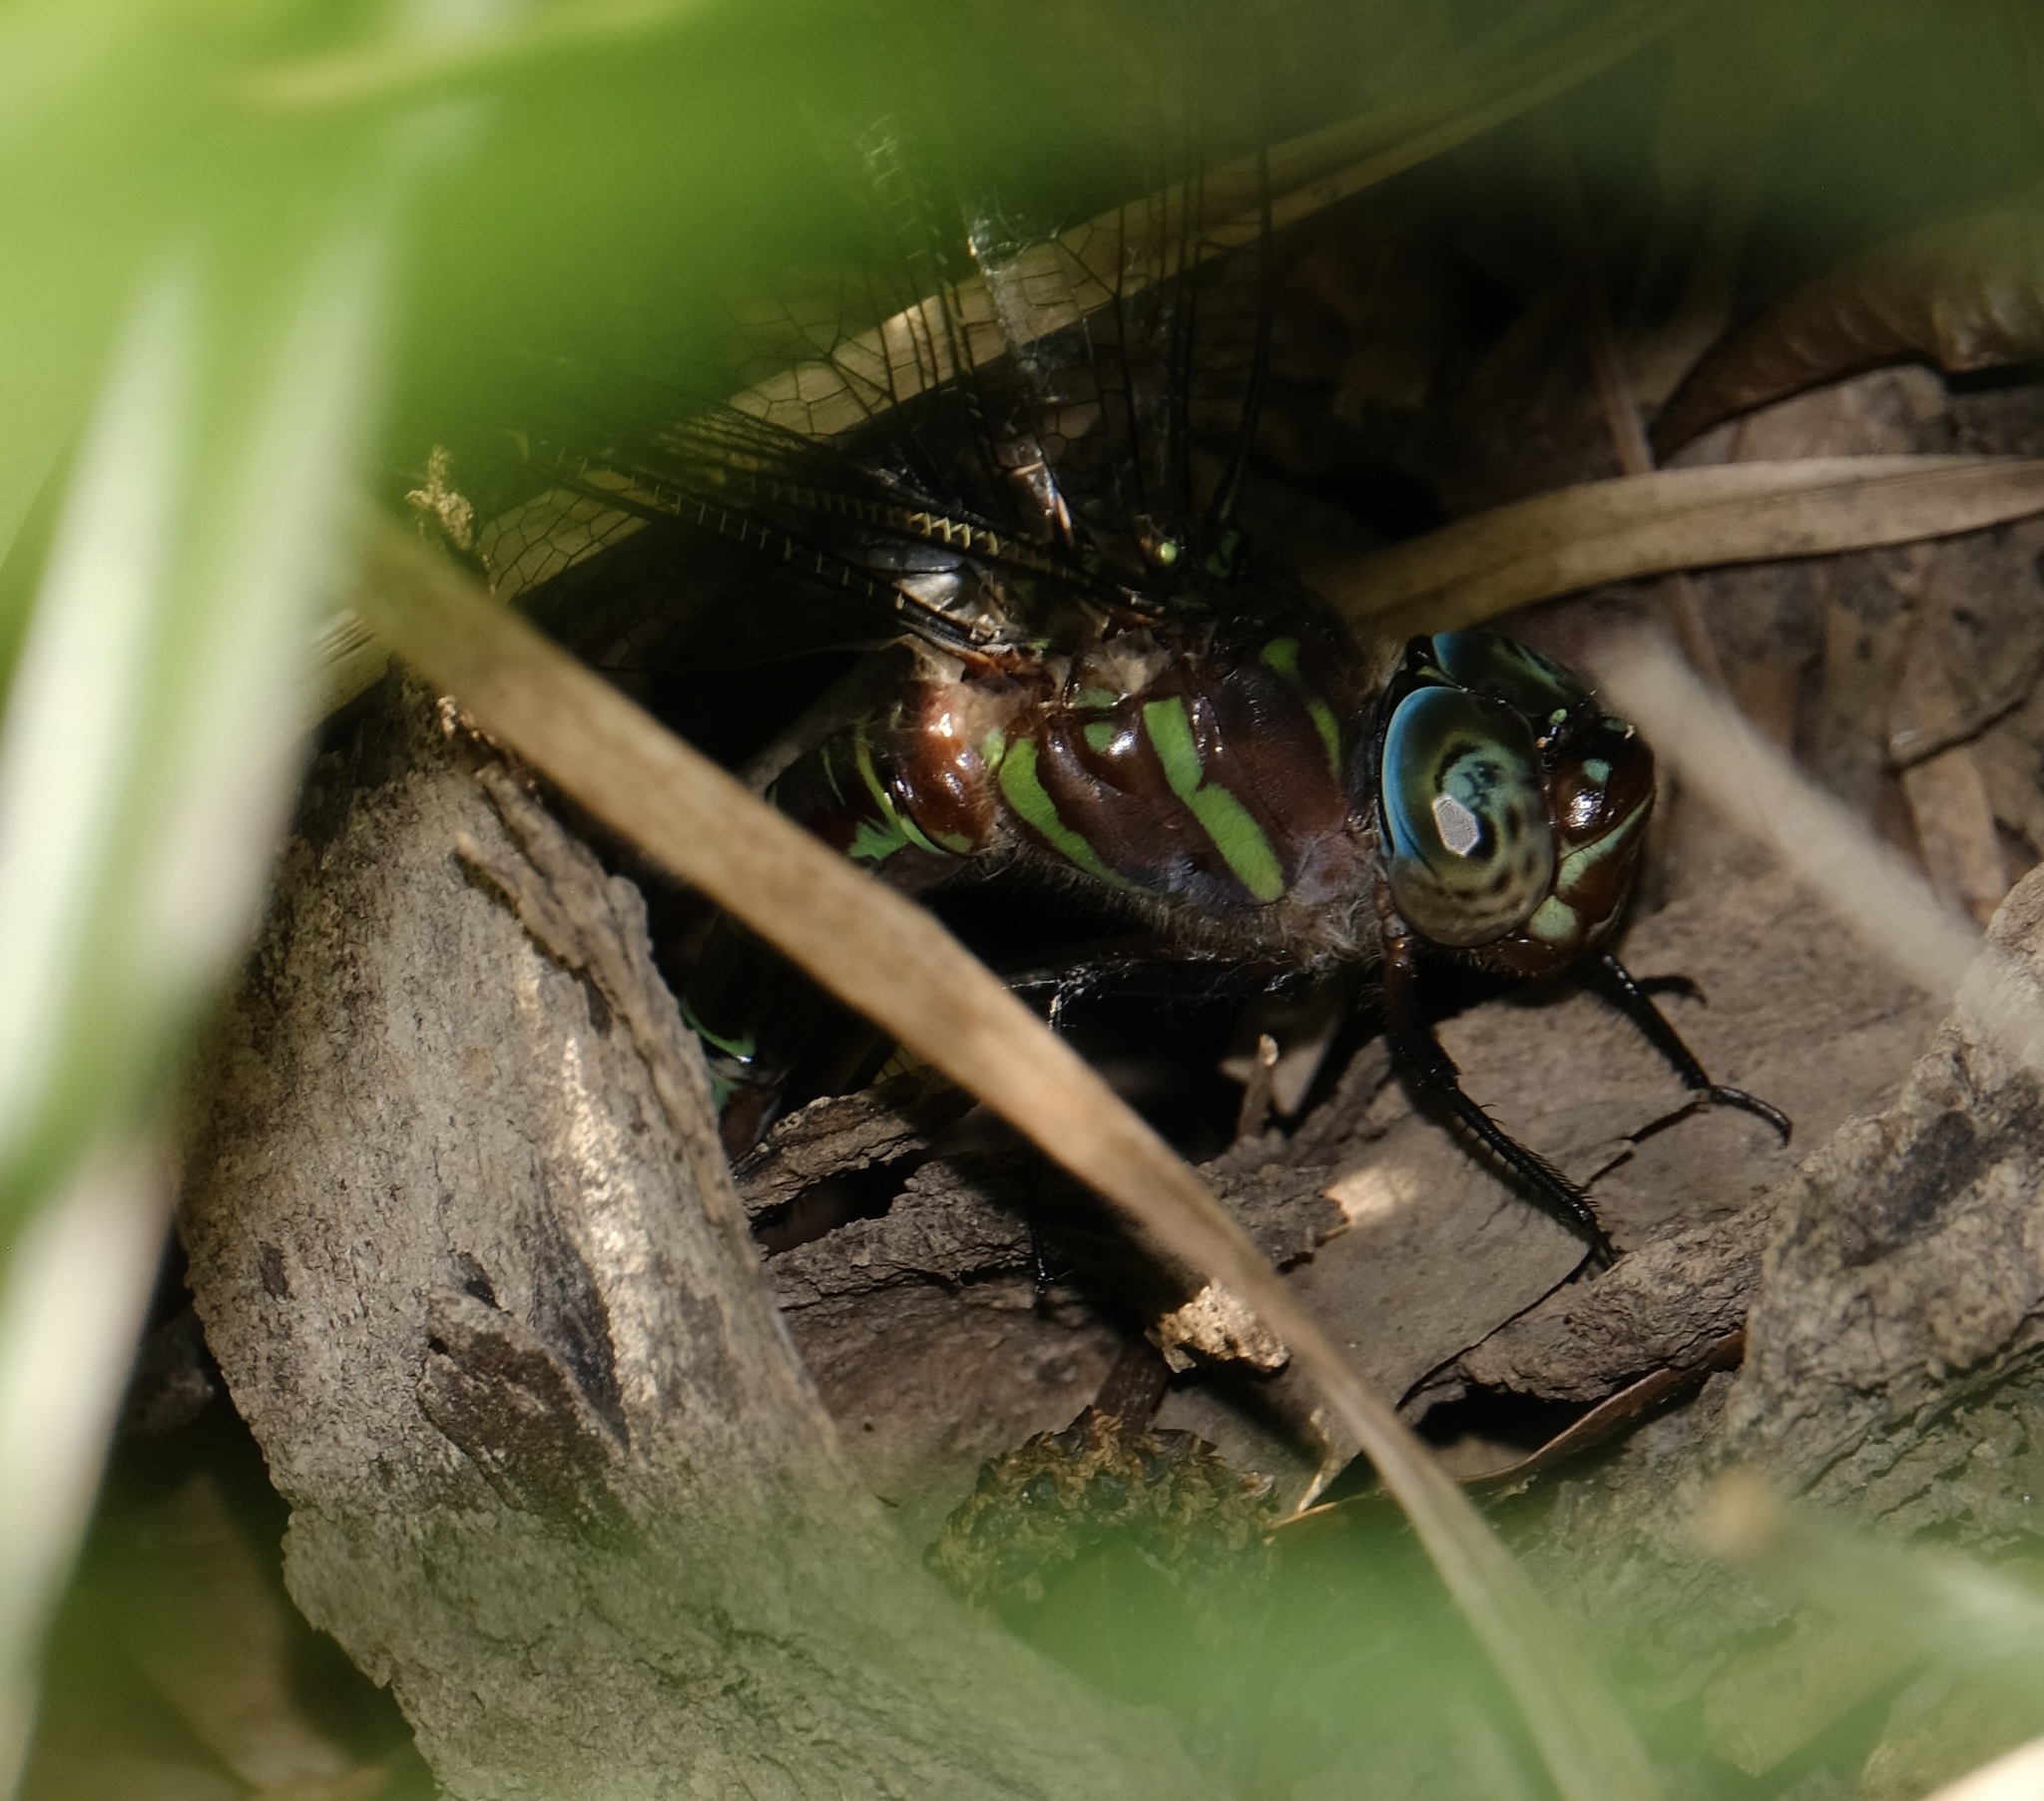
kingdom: Animalia
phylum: Arthropoda
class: Insecta
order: Odonata
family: Aeshnidae
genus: Epiaeschna
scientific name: Epiaeschna heros
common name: Swamp darner
